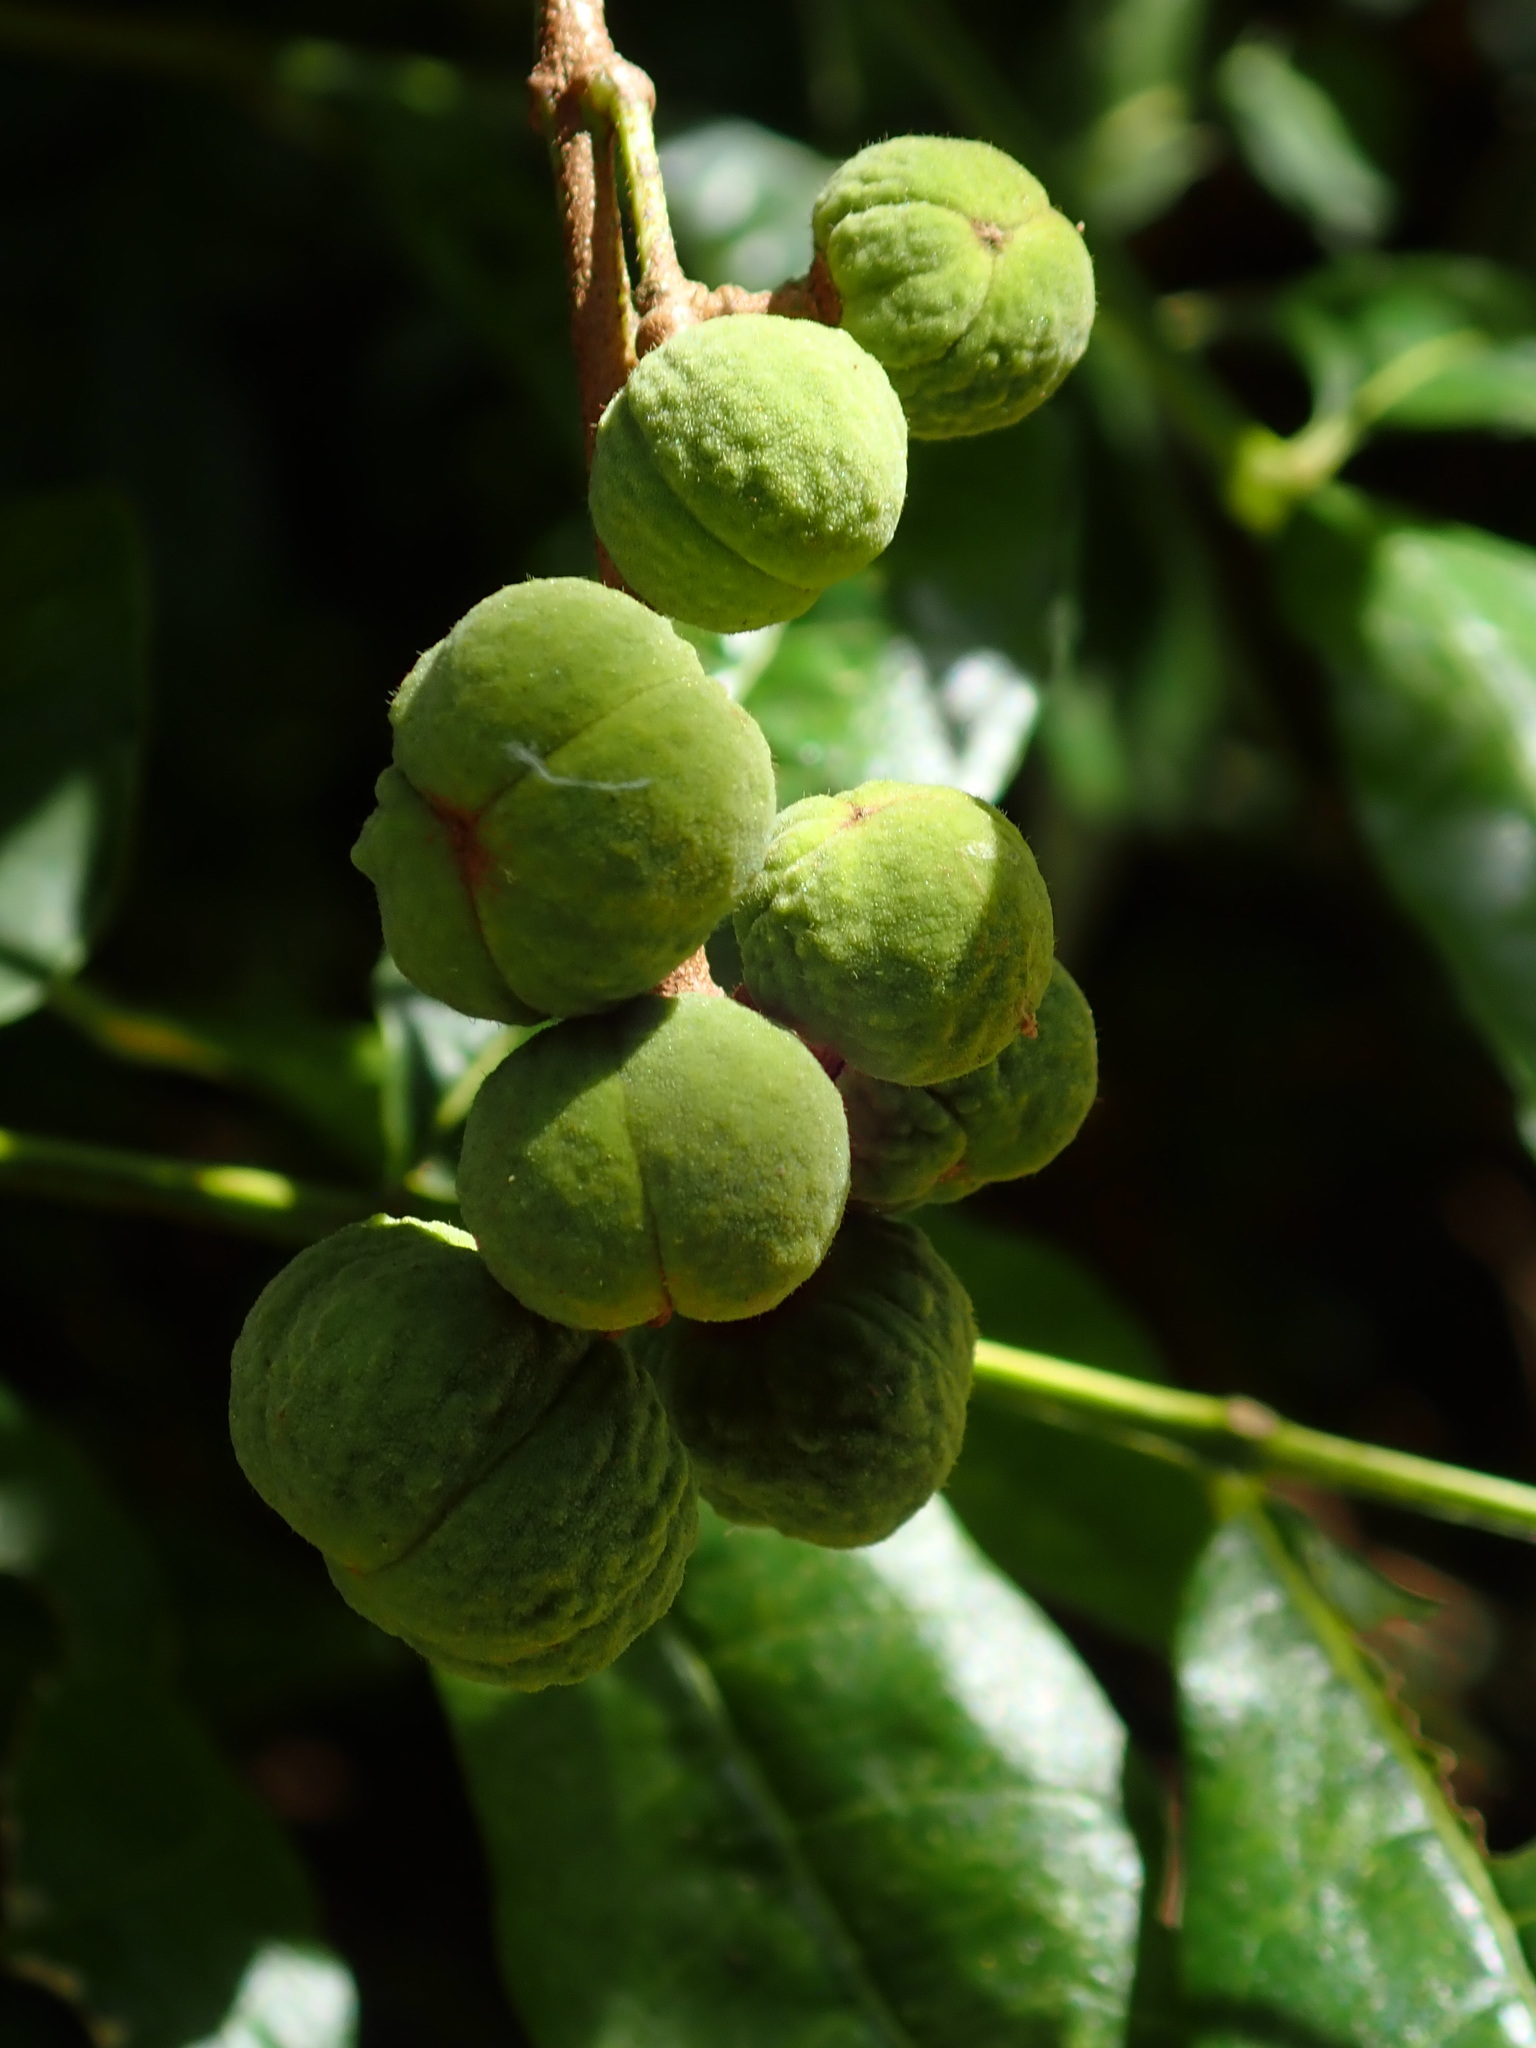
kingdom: Plantae
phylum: Tracheophyta
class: Magnoliopsida
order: Sapindales
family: Meliaceae
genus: Trichilia
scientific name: Trichilia hirta
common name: Red-cedar
